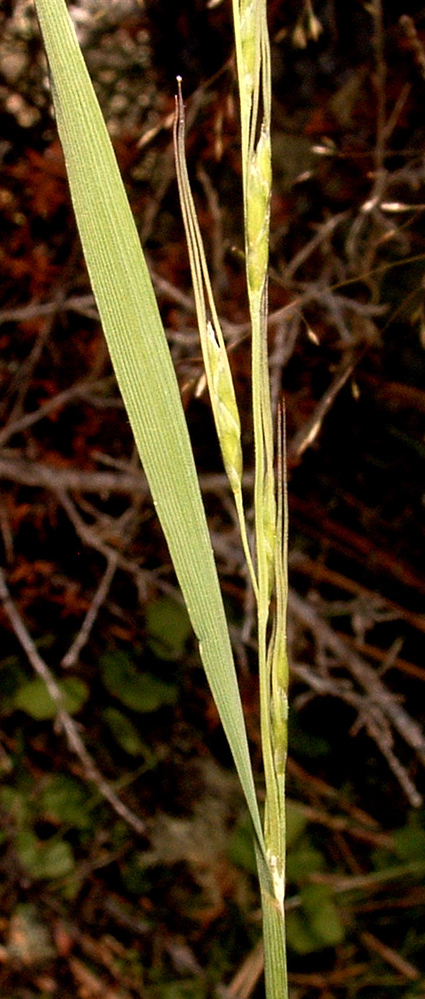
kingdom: Plantae
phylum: Tracheophyta
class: Liliopsida
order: Poales
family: Poaceae
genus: Amphibromus
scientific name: Amphibromus fluitans
